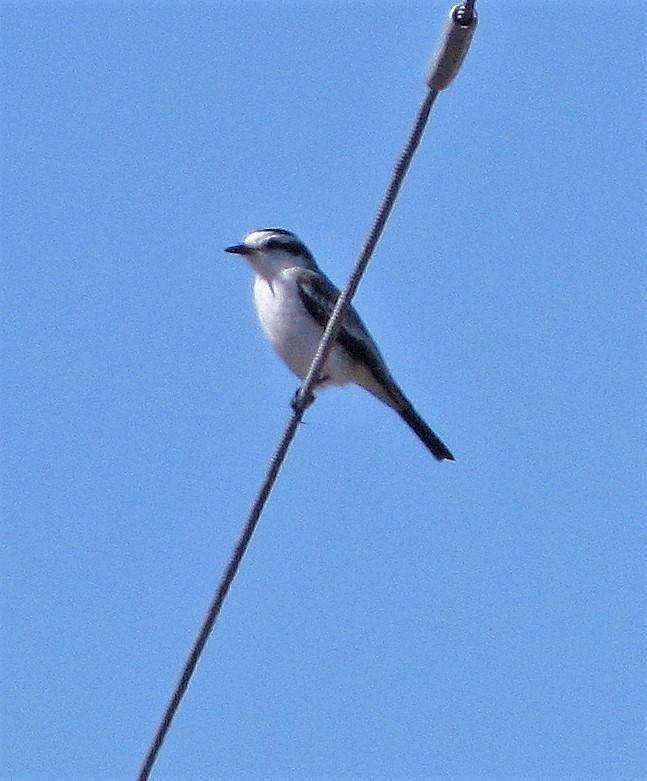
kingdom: Animalia
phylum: Chordata
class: Aves
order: Passeriformes
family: Tyrannidae
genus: Xolmis
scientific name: Xolmis coronatus
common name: Black-crowned monjita
